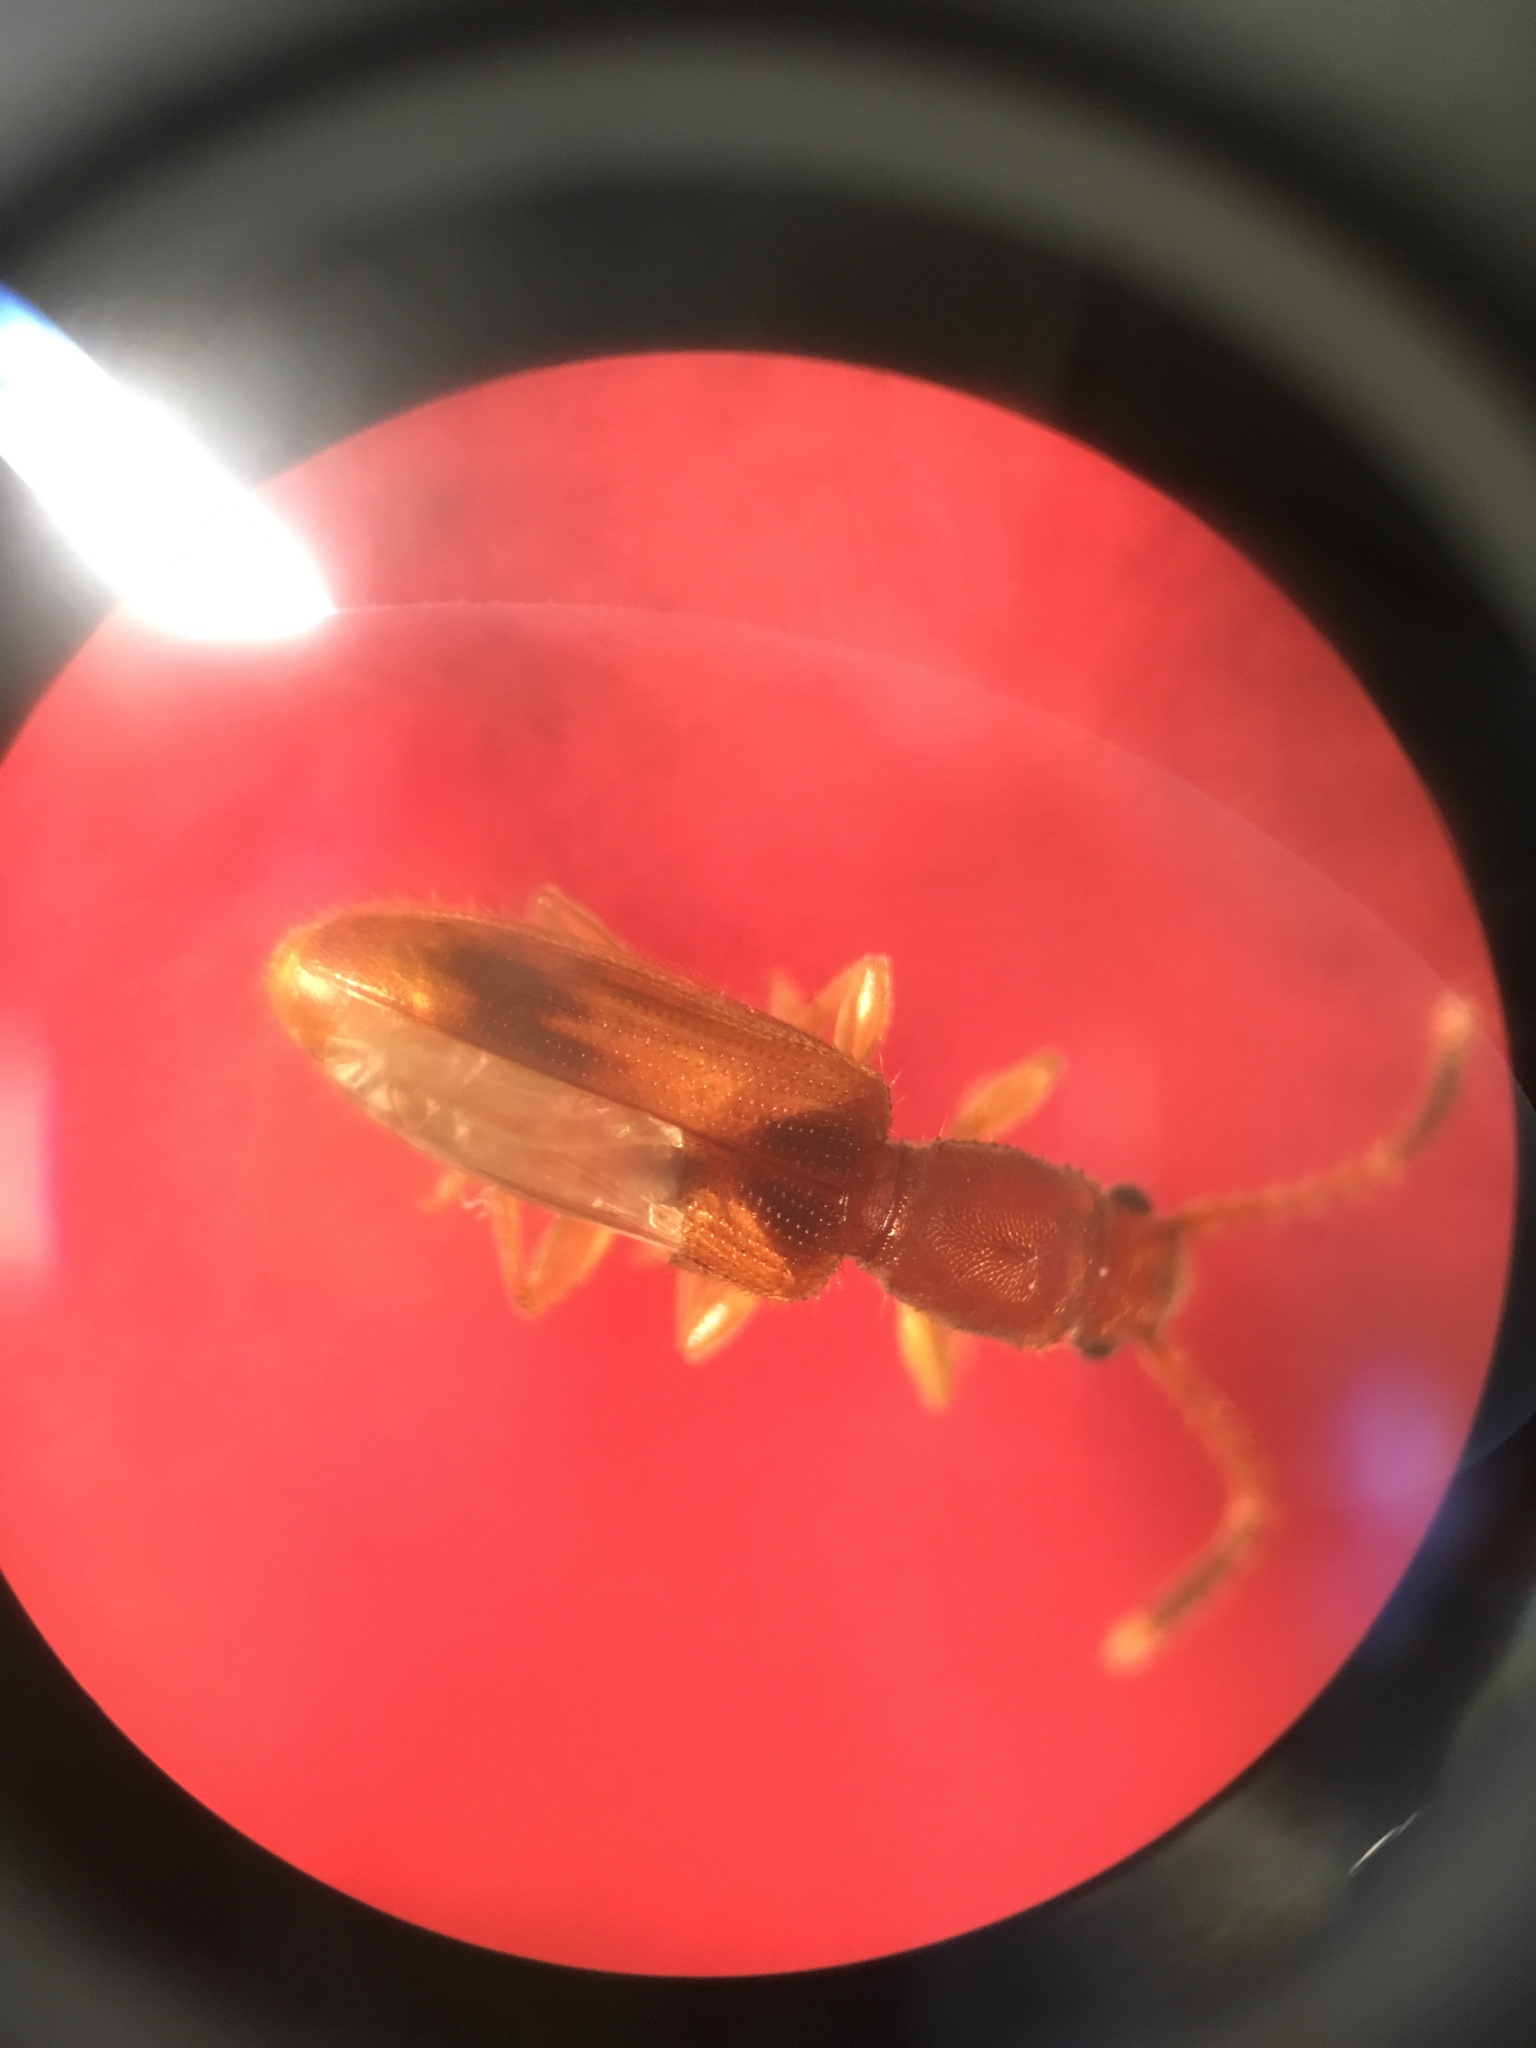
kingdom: Animalia
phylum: Arthropoda
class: Insecta
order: Coleoptera
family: Silvanidae
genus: Cryptamorpha
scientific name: Cryptamorpha desjardinsi
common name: Cryptamorpha
